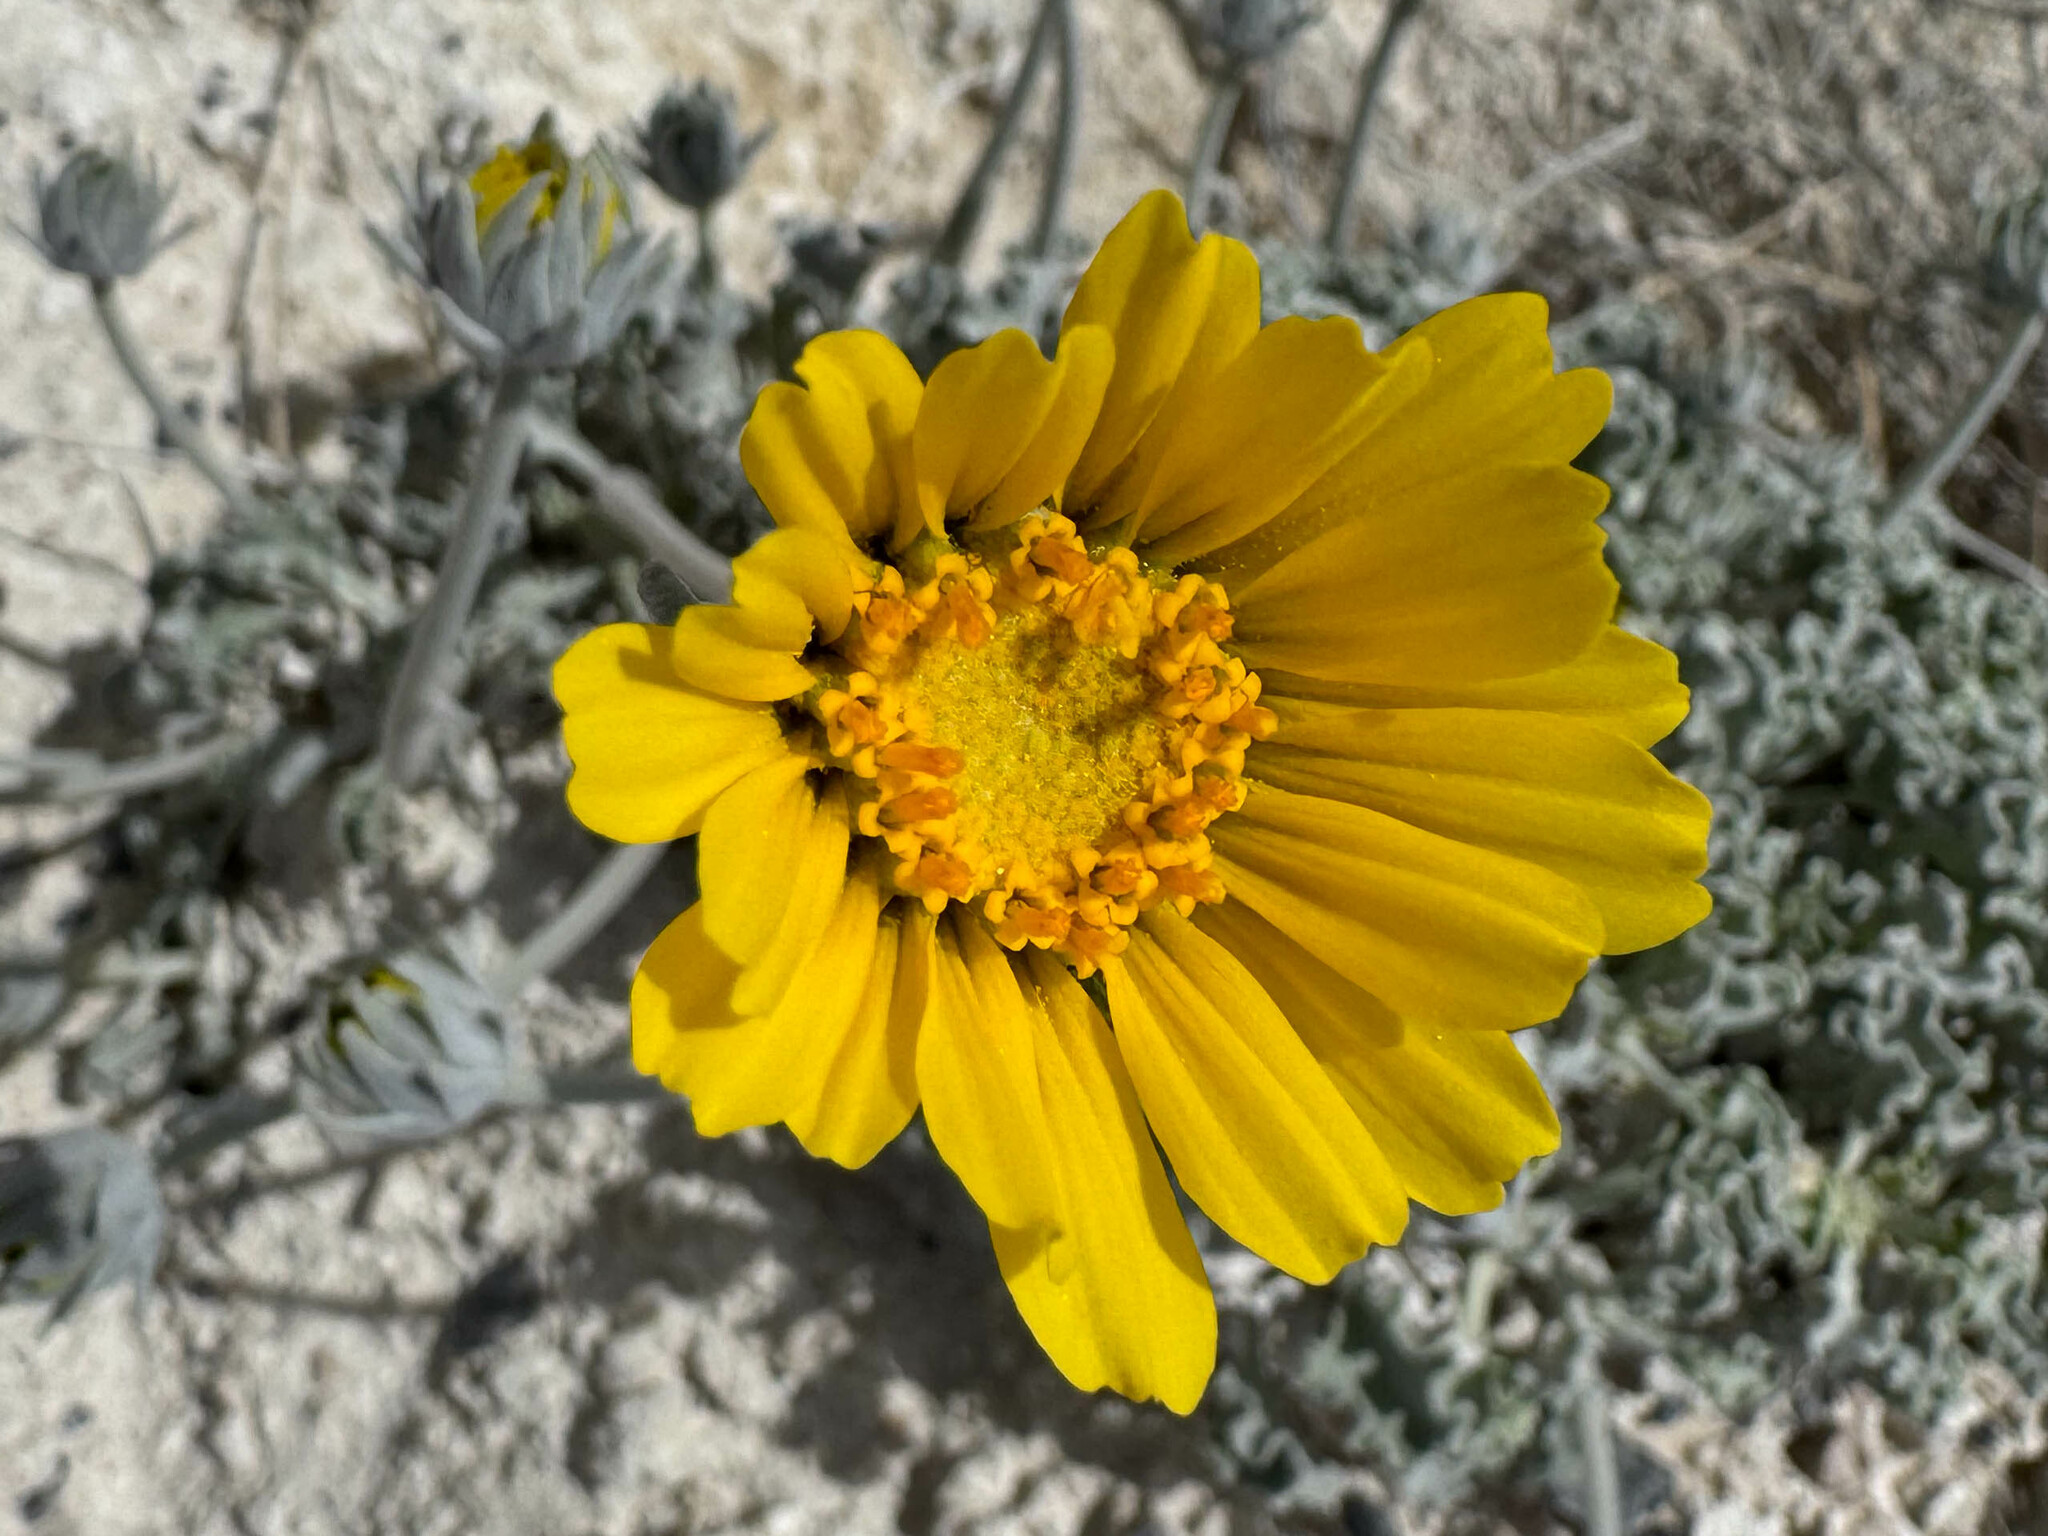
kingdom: Plantae
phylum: Tracheophyta
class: Magnoliopsida
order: Asterales
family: Asteraceae
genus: Enceliopsis
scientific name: Enceliopsis nudicaulis
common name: Naked-stem daisy
